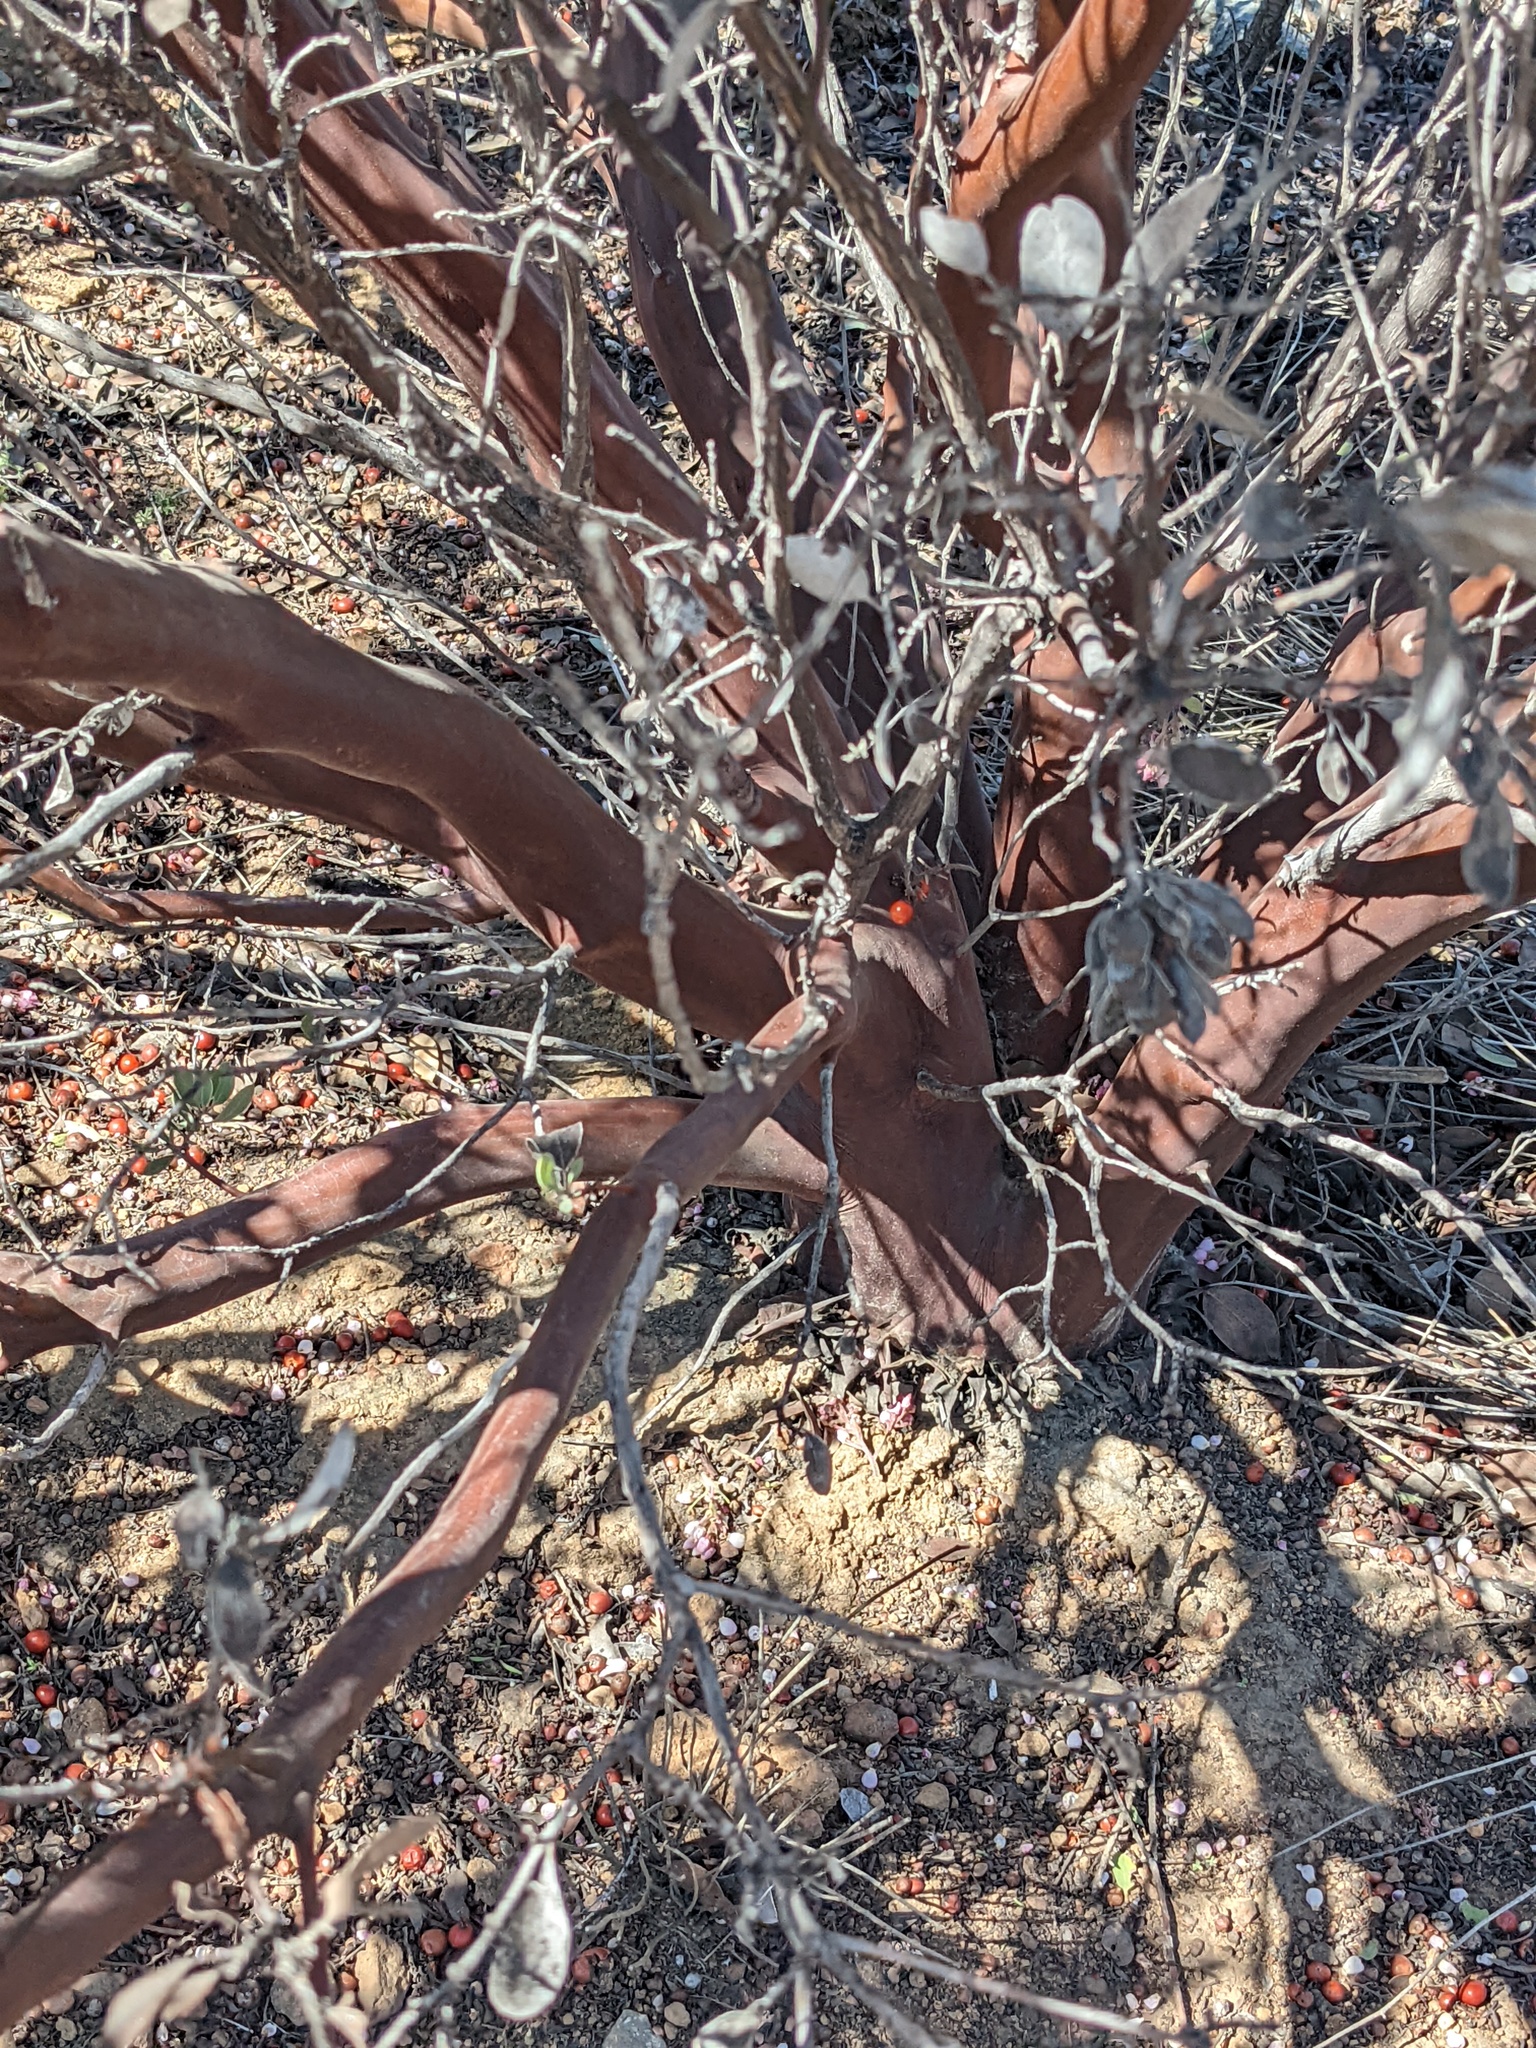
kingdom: Plantae
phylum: Tracheophyta
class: Magnoliopsida
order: Ericales
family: Ericaceae
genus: Arctostaphylos
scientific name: Arctostaphylos otayensis
